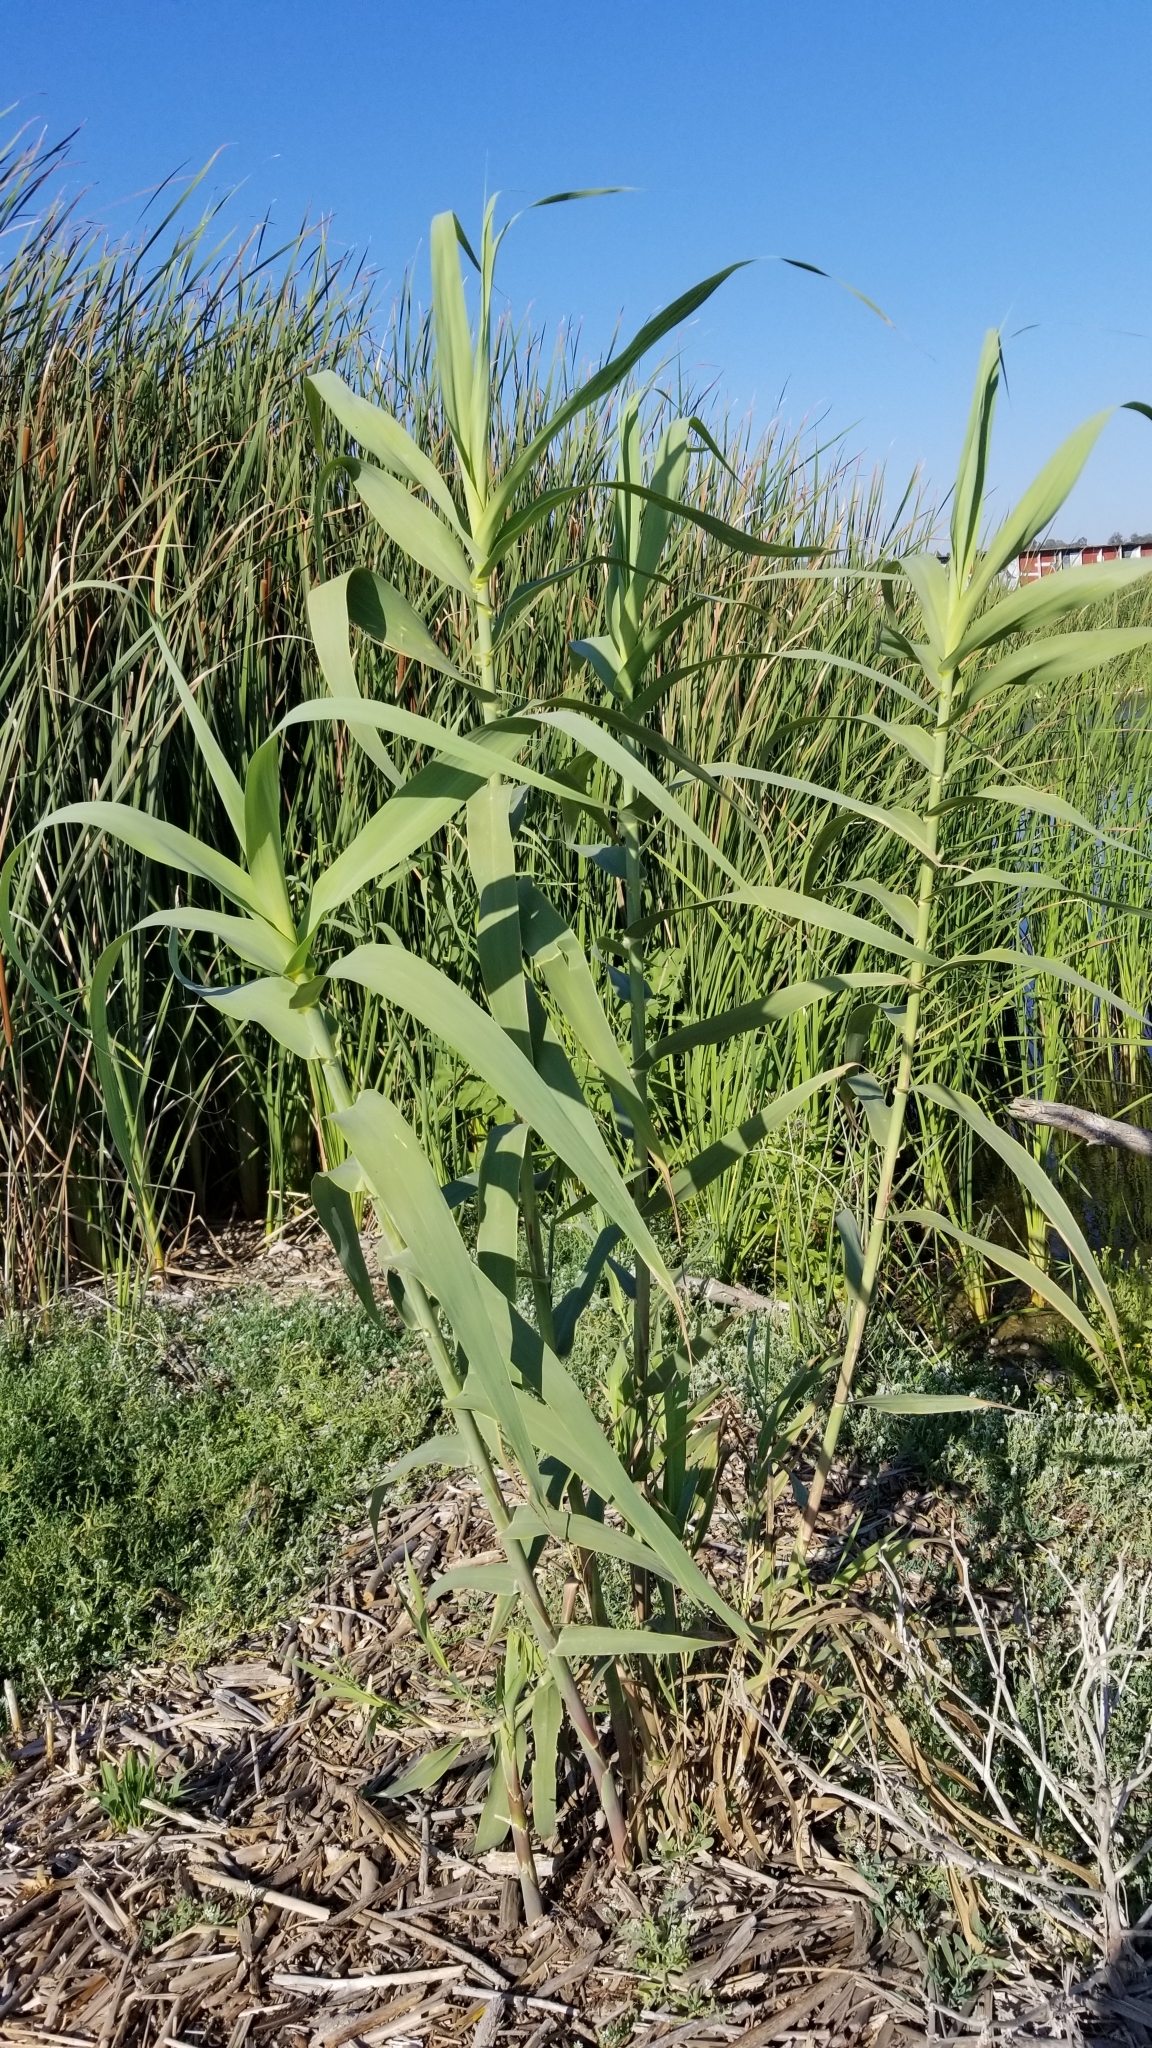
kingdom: Plantae
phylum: Tracheophyta
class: Liliopsida
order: Poales
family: Poaceae
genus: Arundo
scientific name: Arundo donax
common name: Giant reed
